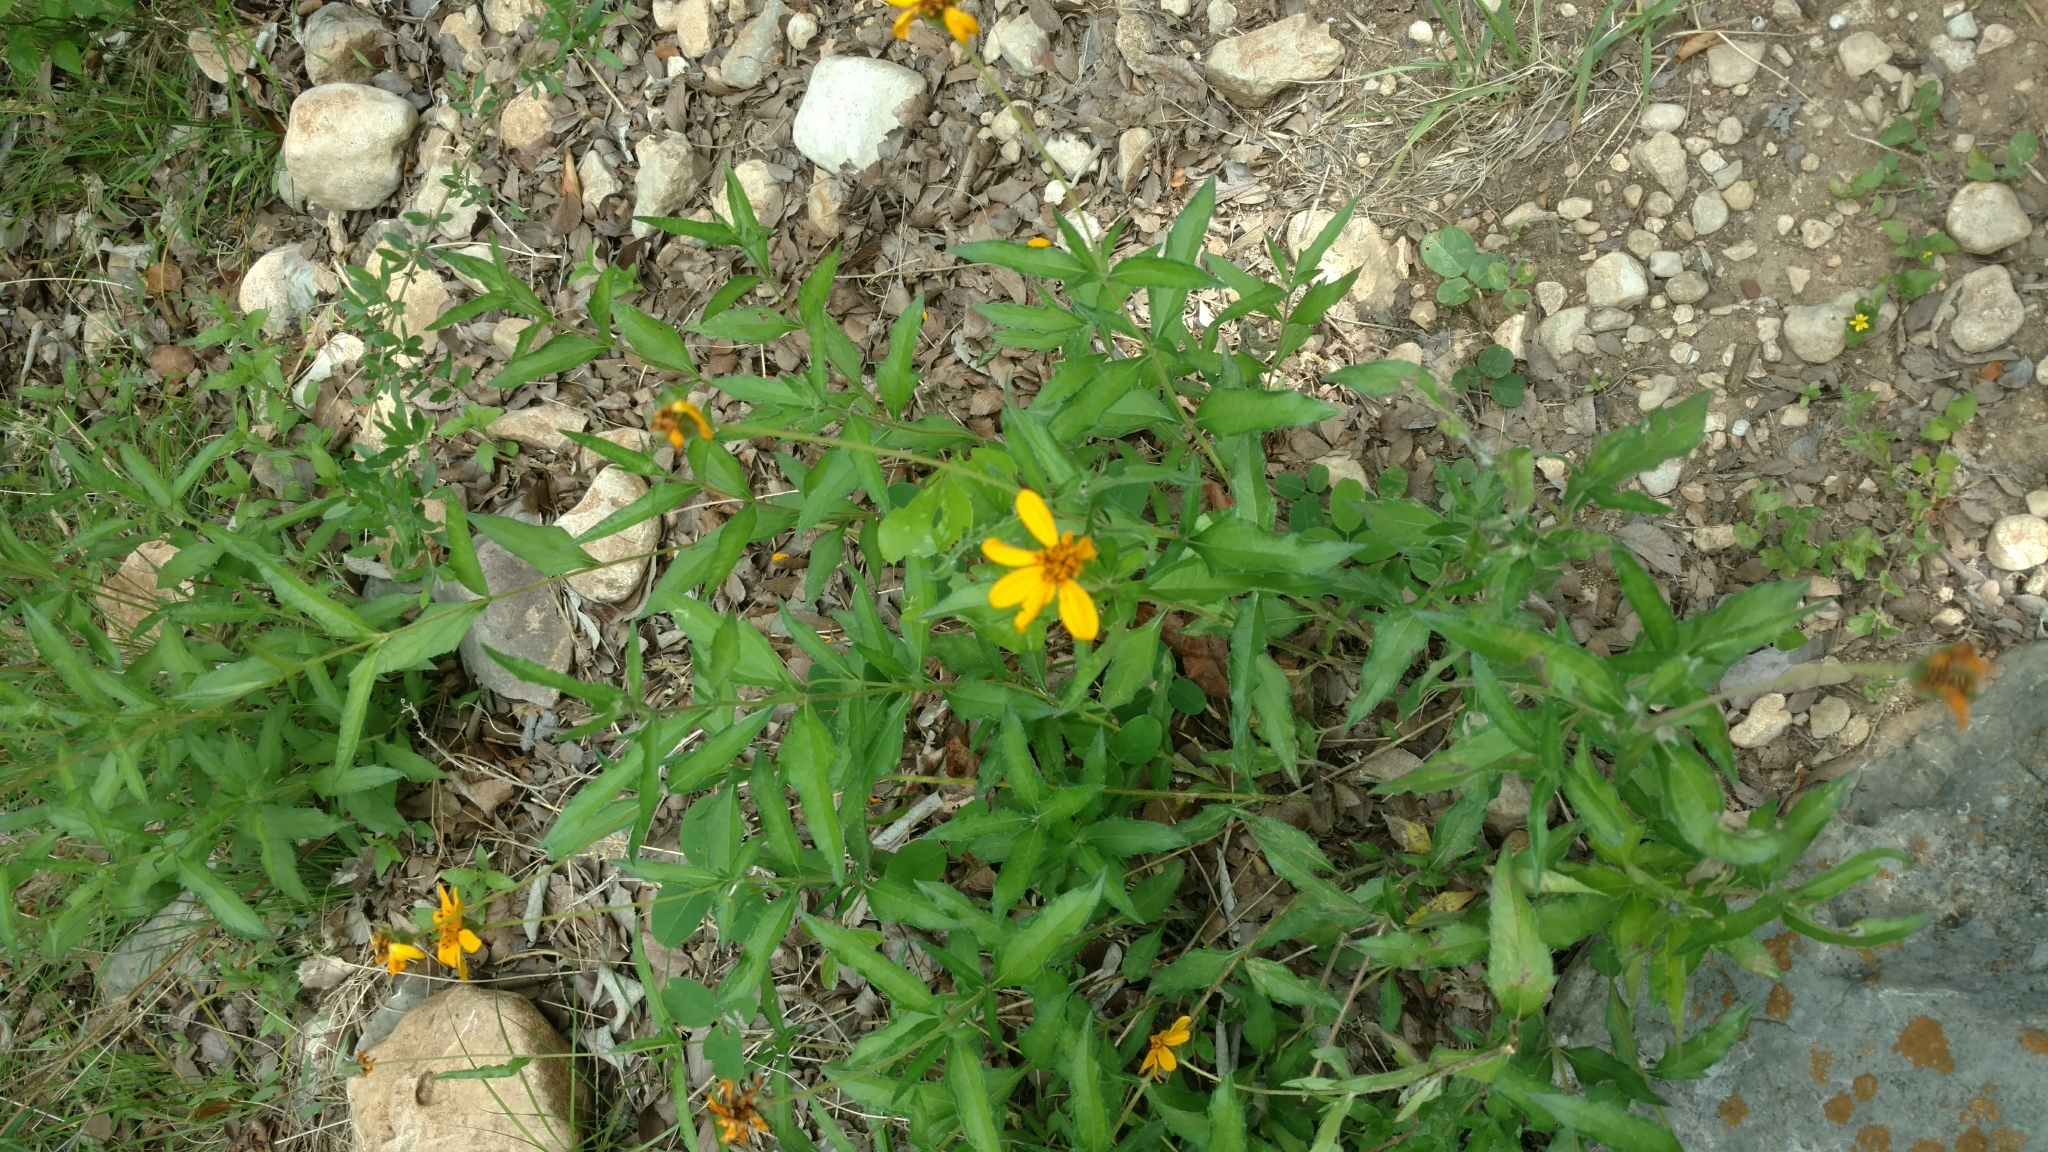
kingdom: Plantae
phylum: Tracheophyta
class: Magnoliopsida
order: Asterales
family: Asteraceae
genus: Wedelia
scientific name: Wedelia acapulcensis
